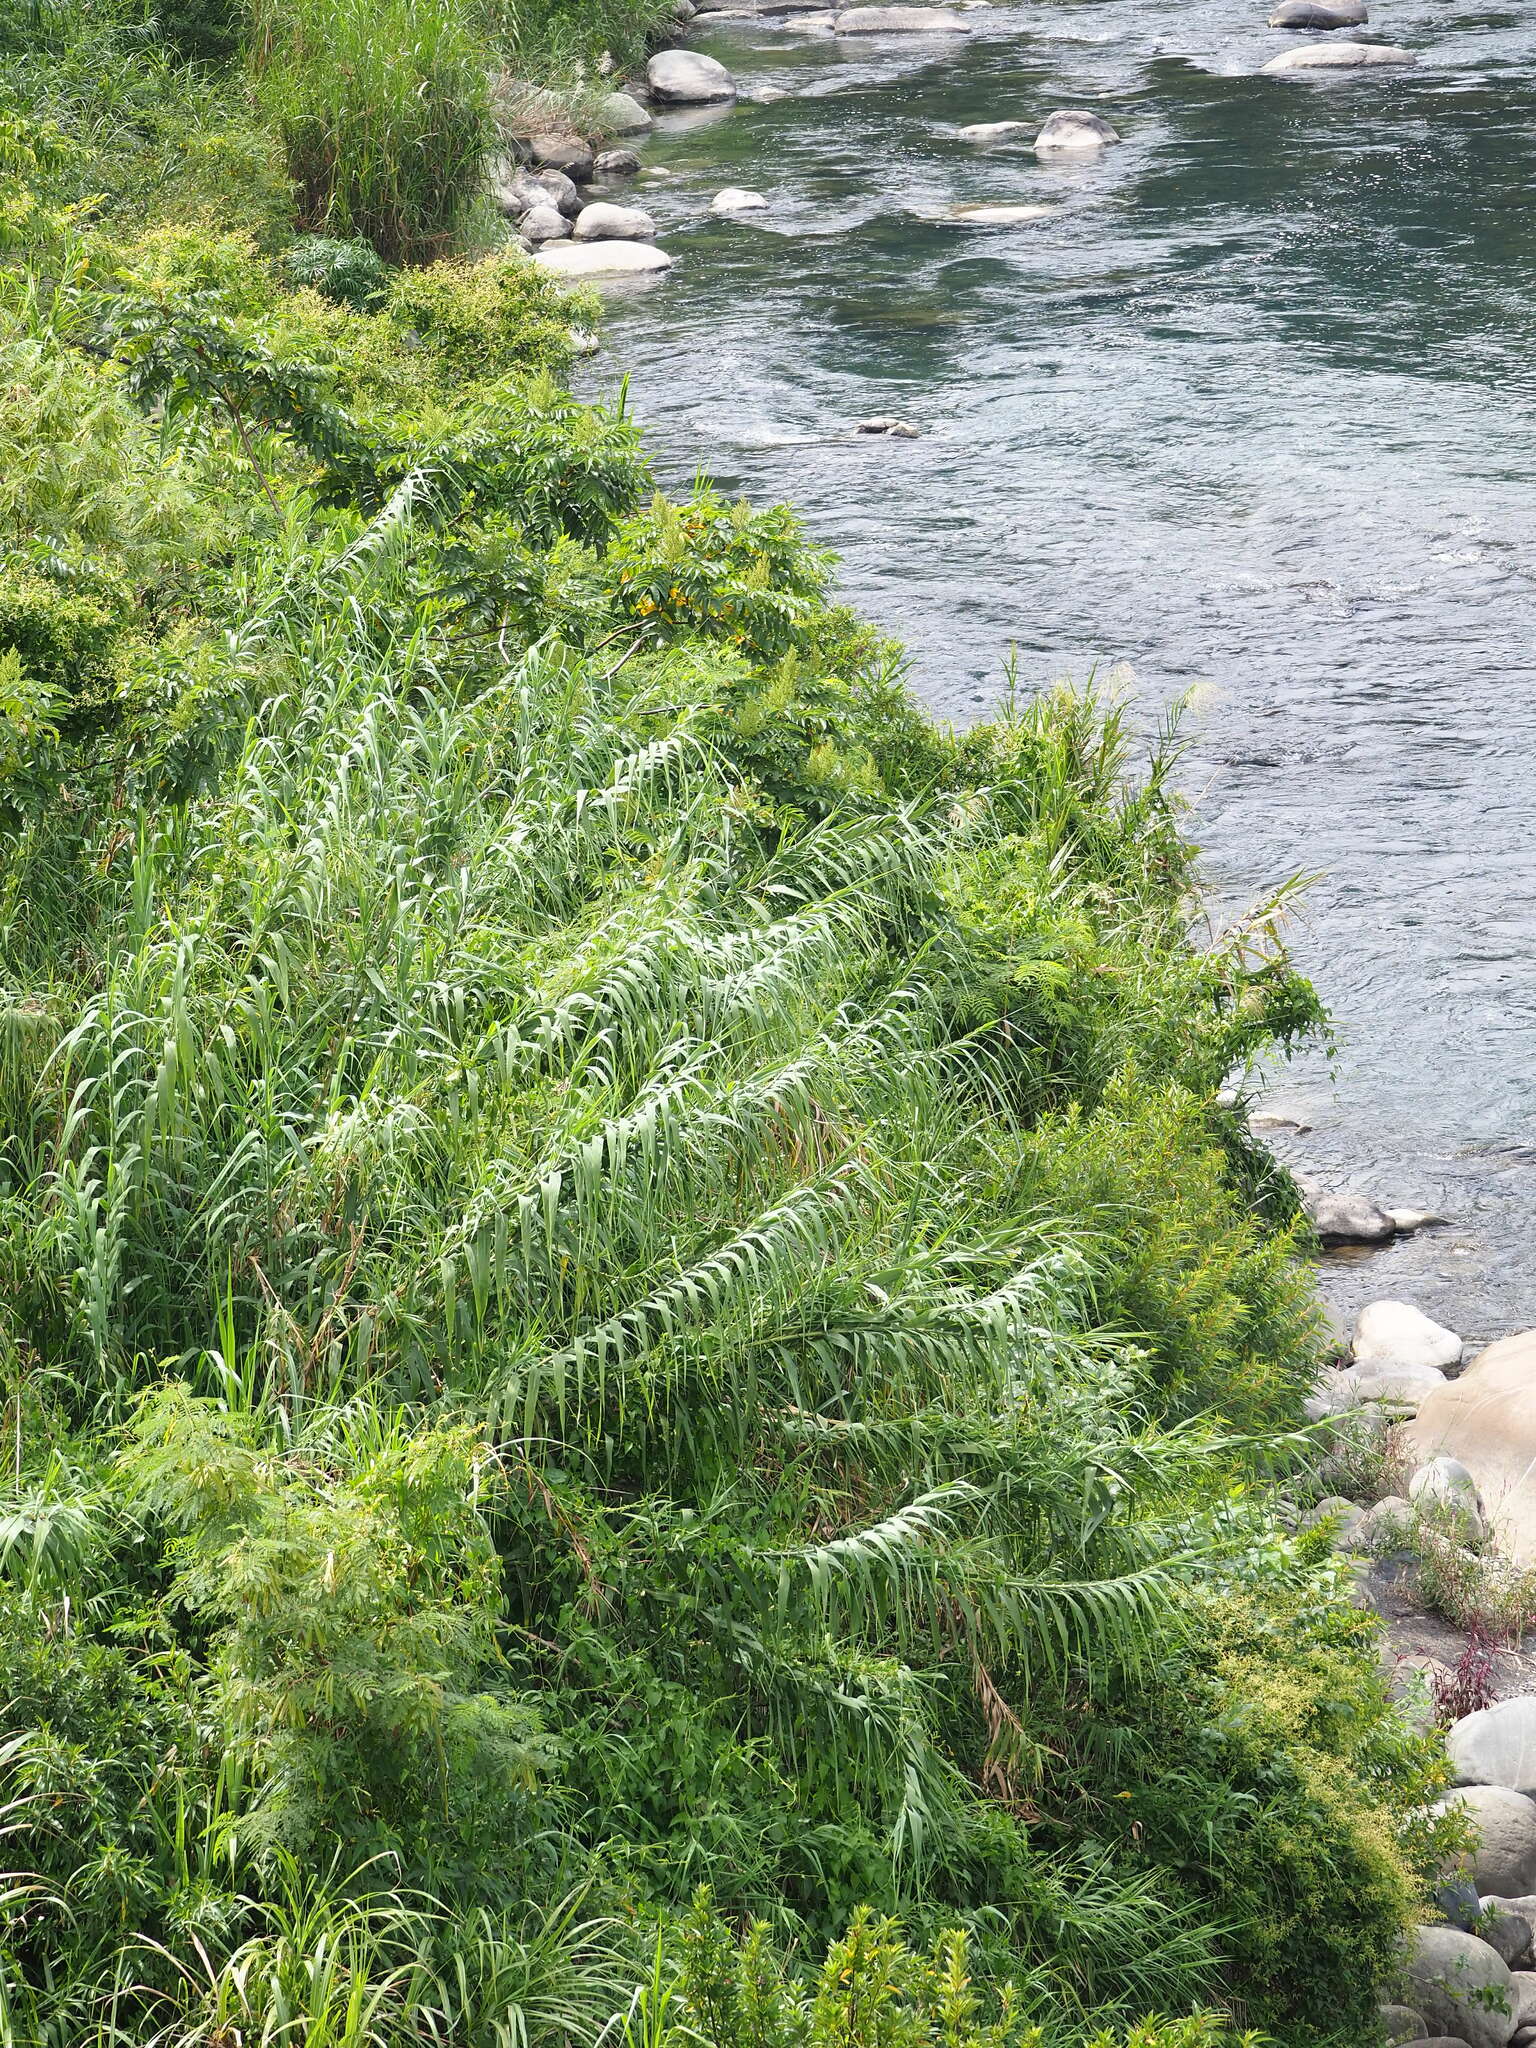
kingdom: Plantae
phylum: Tracheophyta
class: Liliopsida
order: Poales
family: Poaceae
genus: Phragmites
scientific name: Phragmites karka
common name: Tropical reed
